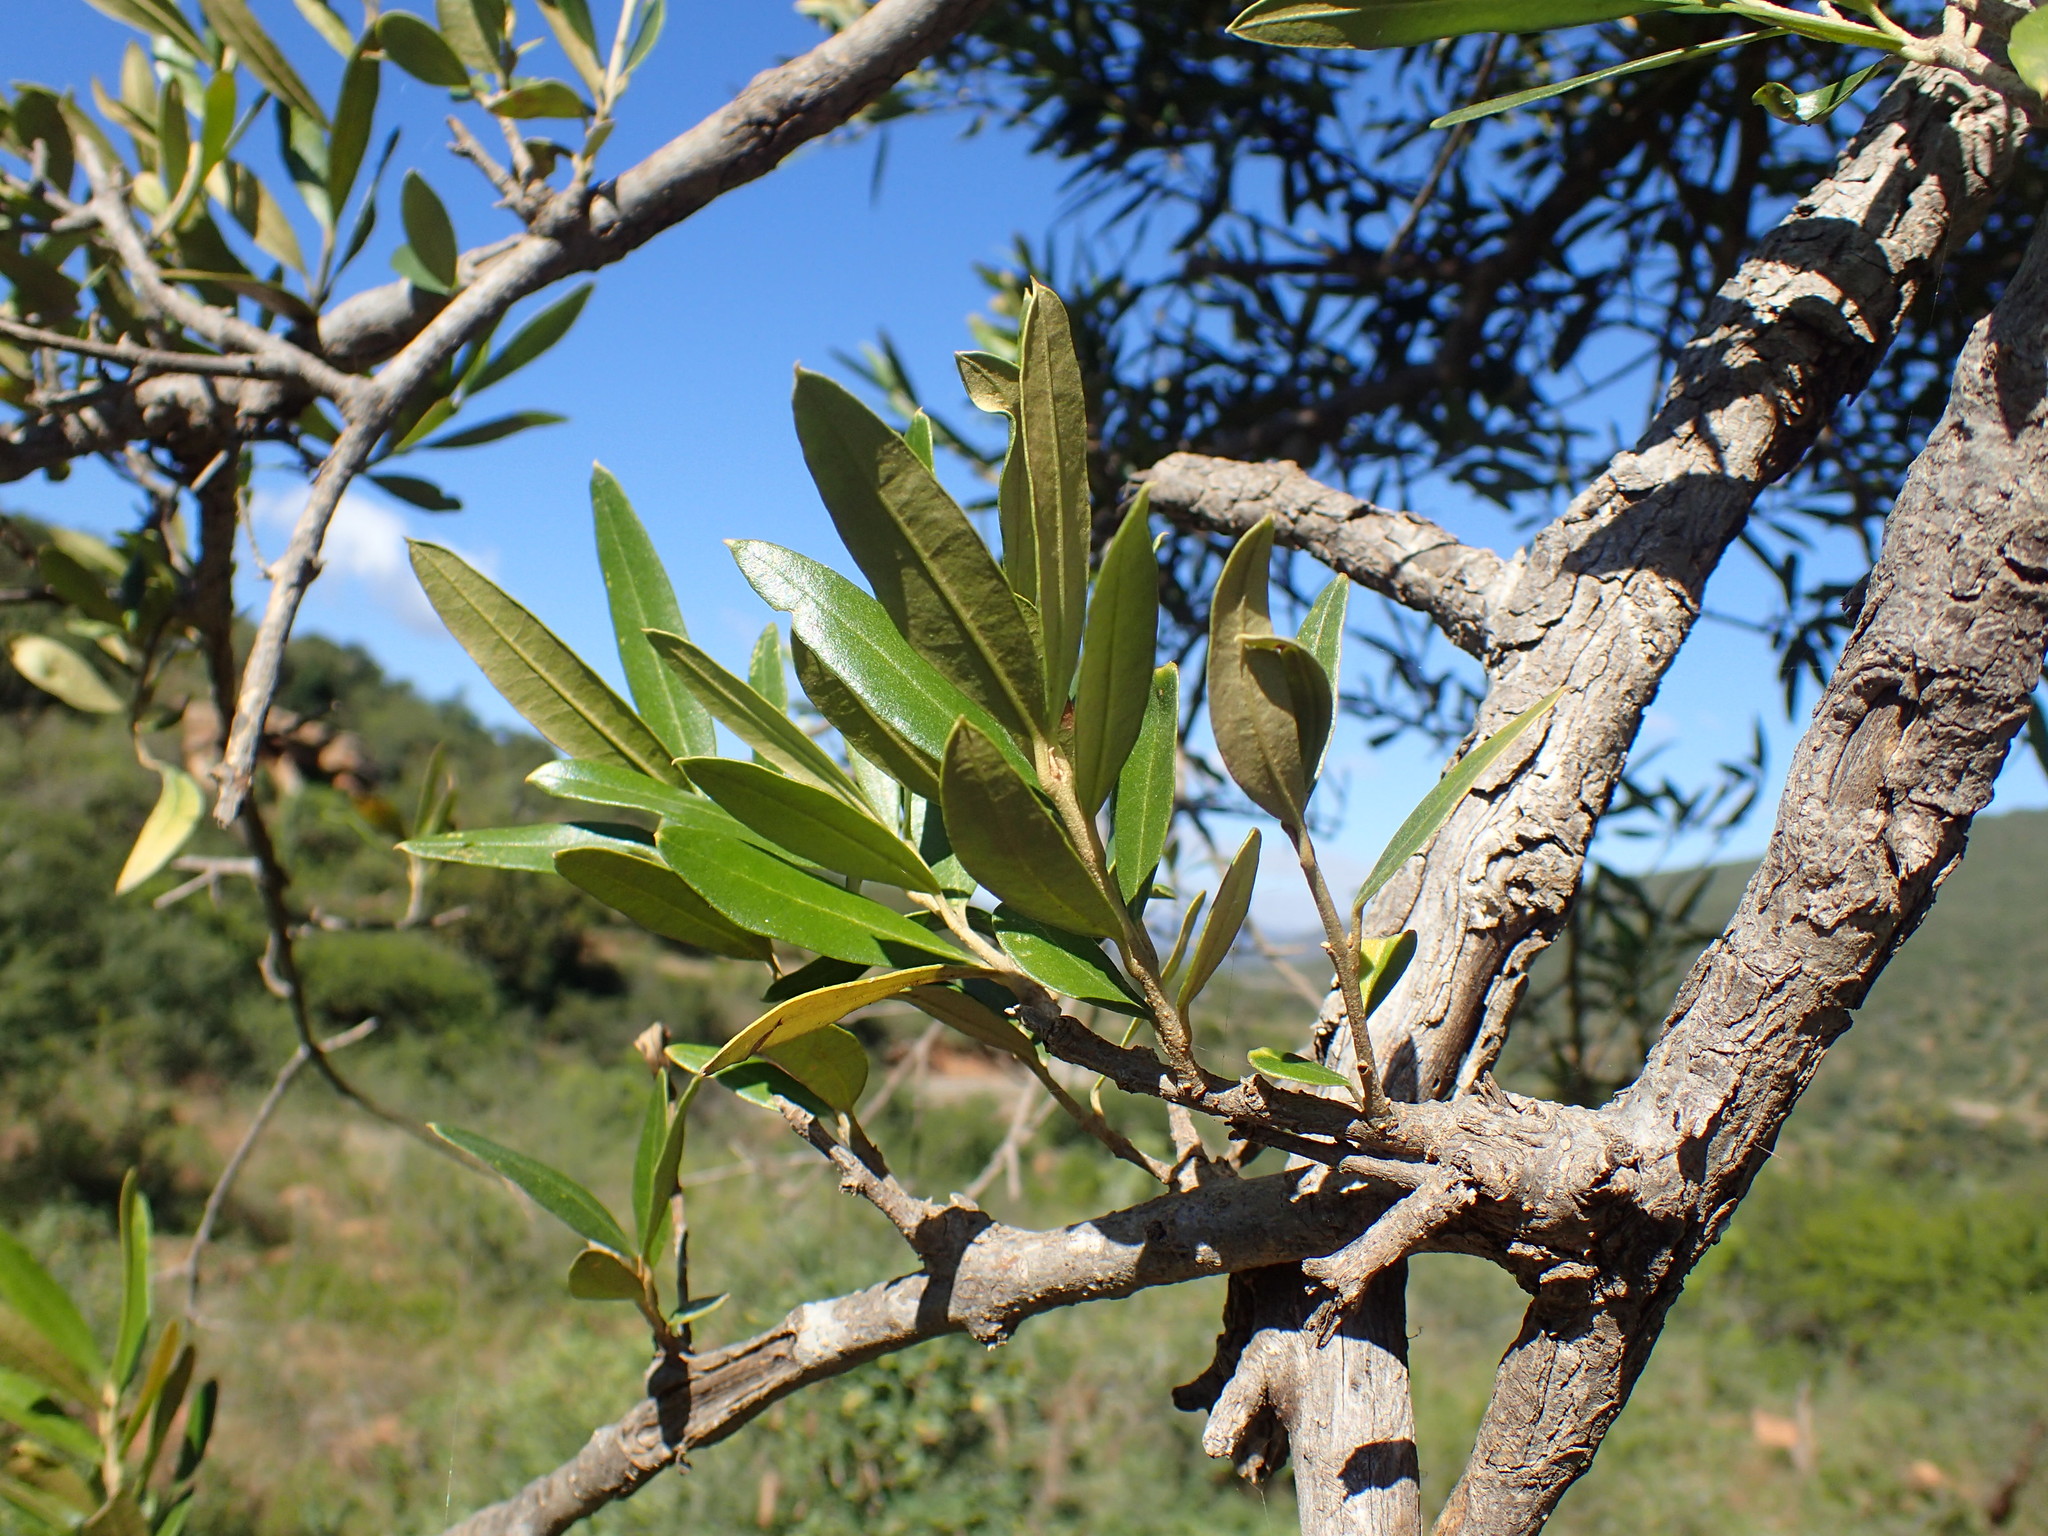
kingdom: Plantae
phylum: Tracheophyta
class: Magnoliopsida
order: Lamiales
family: Oleaceae
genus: Olea
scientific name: Olea europaea
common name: Olive
